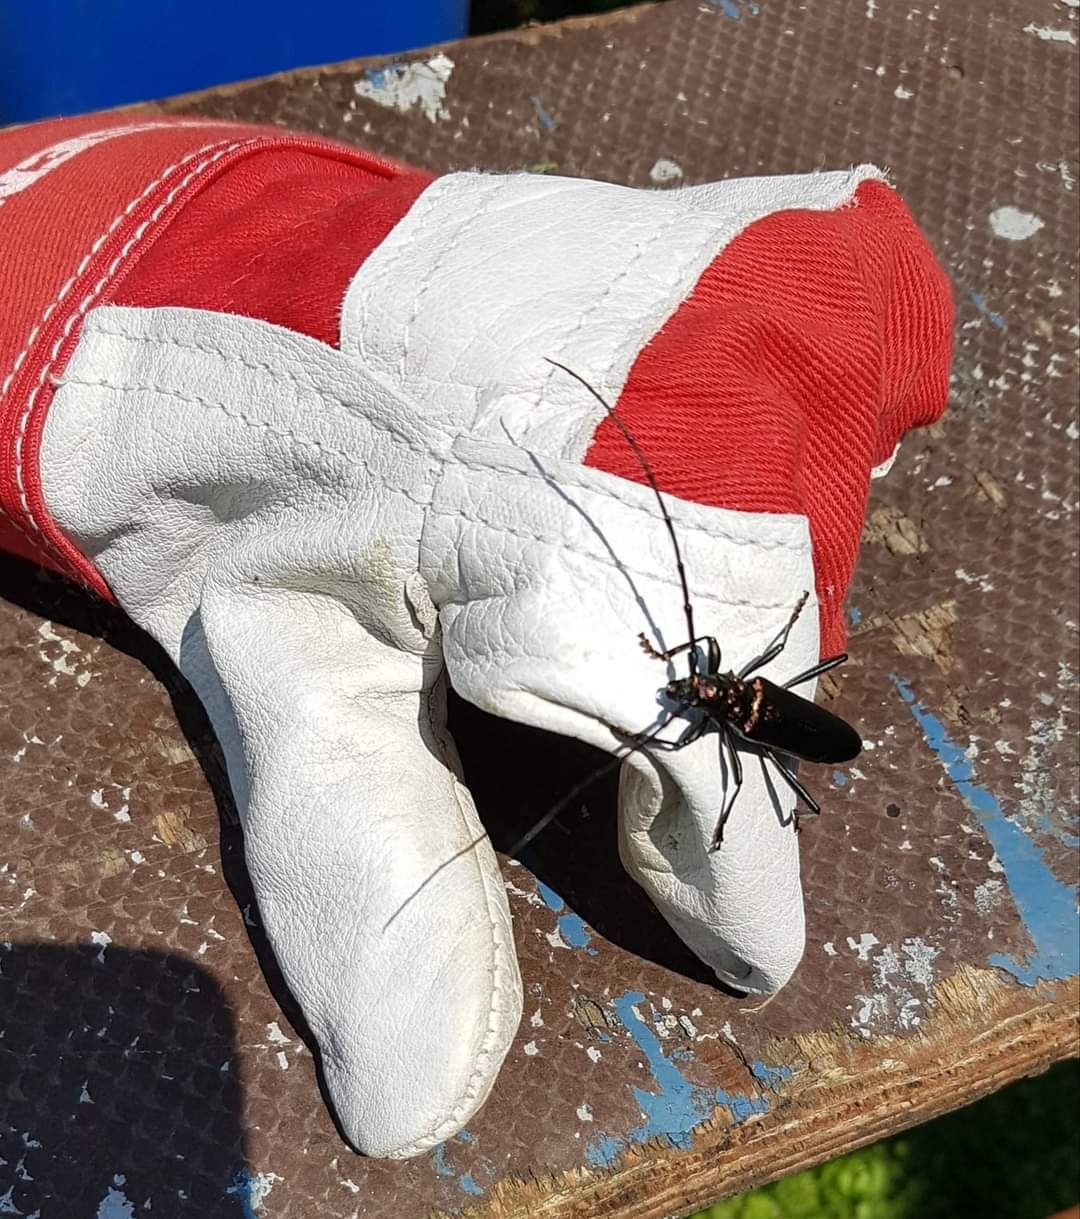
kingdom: Animalia
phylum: Arthropoda
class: Insecta
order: Coleoptera
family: Cerambycidae
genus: Aromia
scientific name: Aromia moschata
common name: Musk beetle
